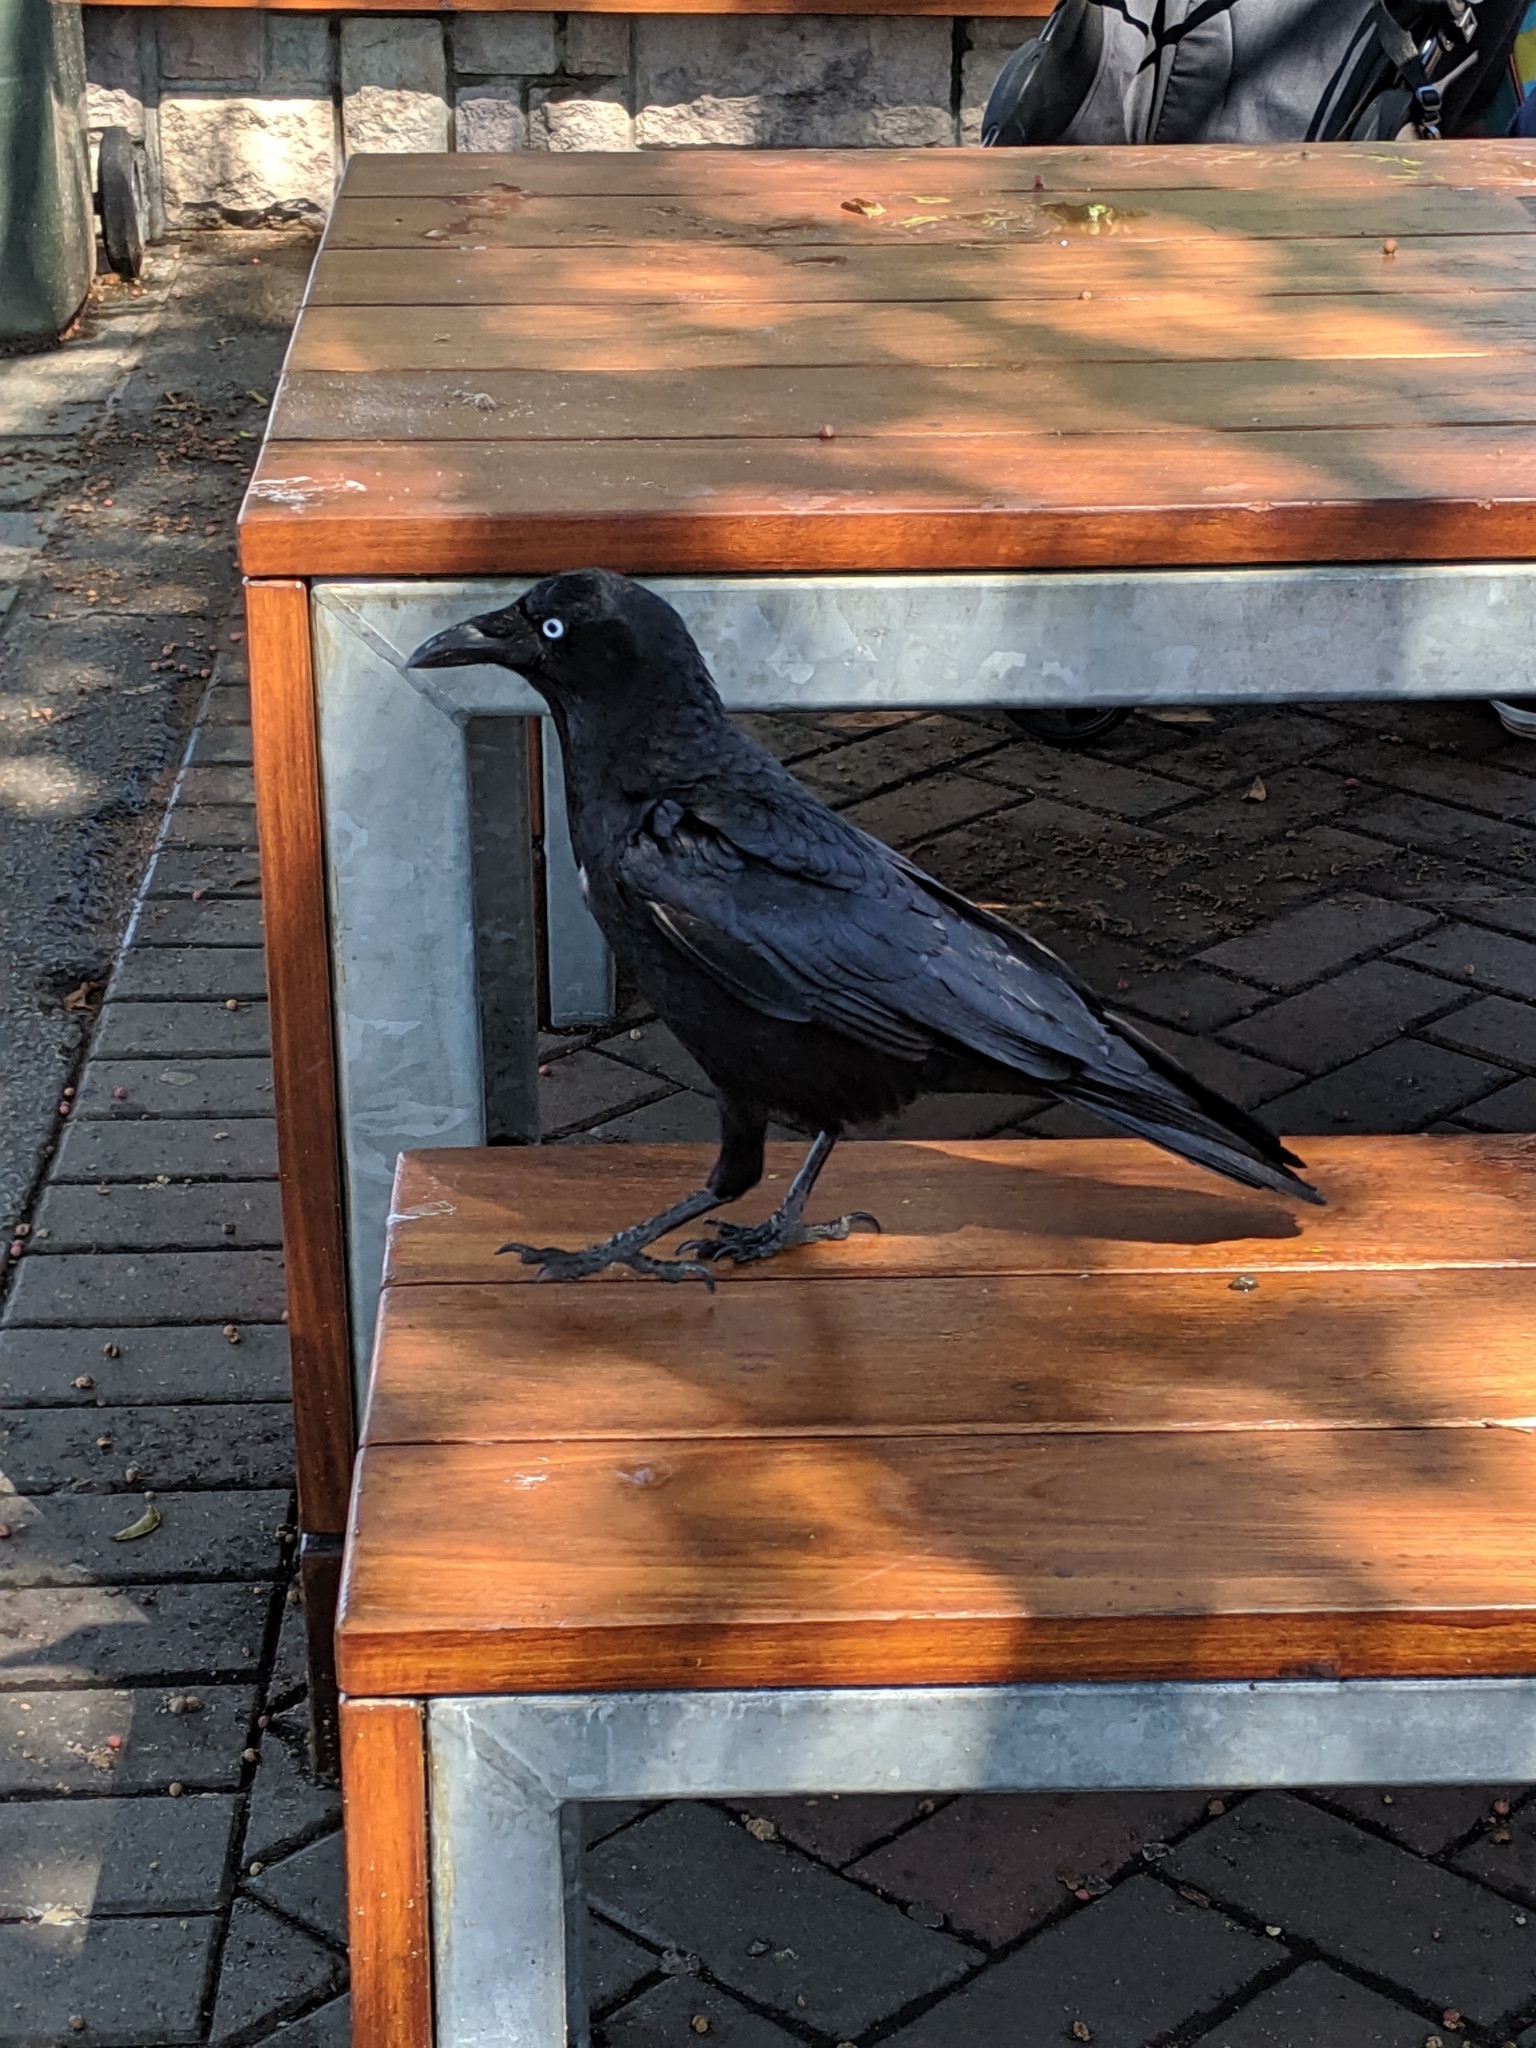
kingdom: Animalia
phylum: Chordata
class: Aves
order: Passeriformes
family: Corvidae
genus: Corvus
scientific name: Corvus orru
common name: Torresian crow
